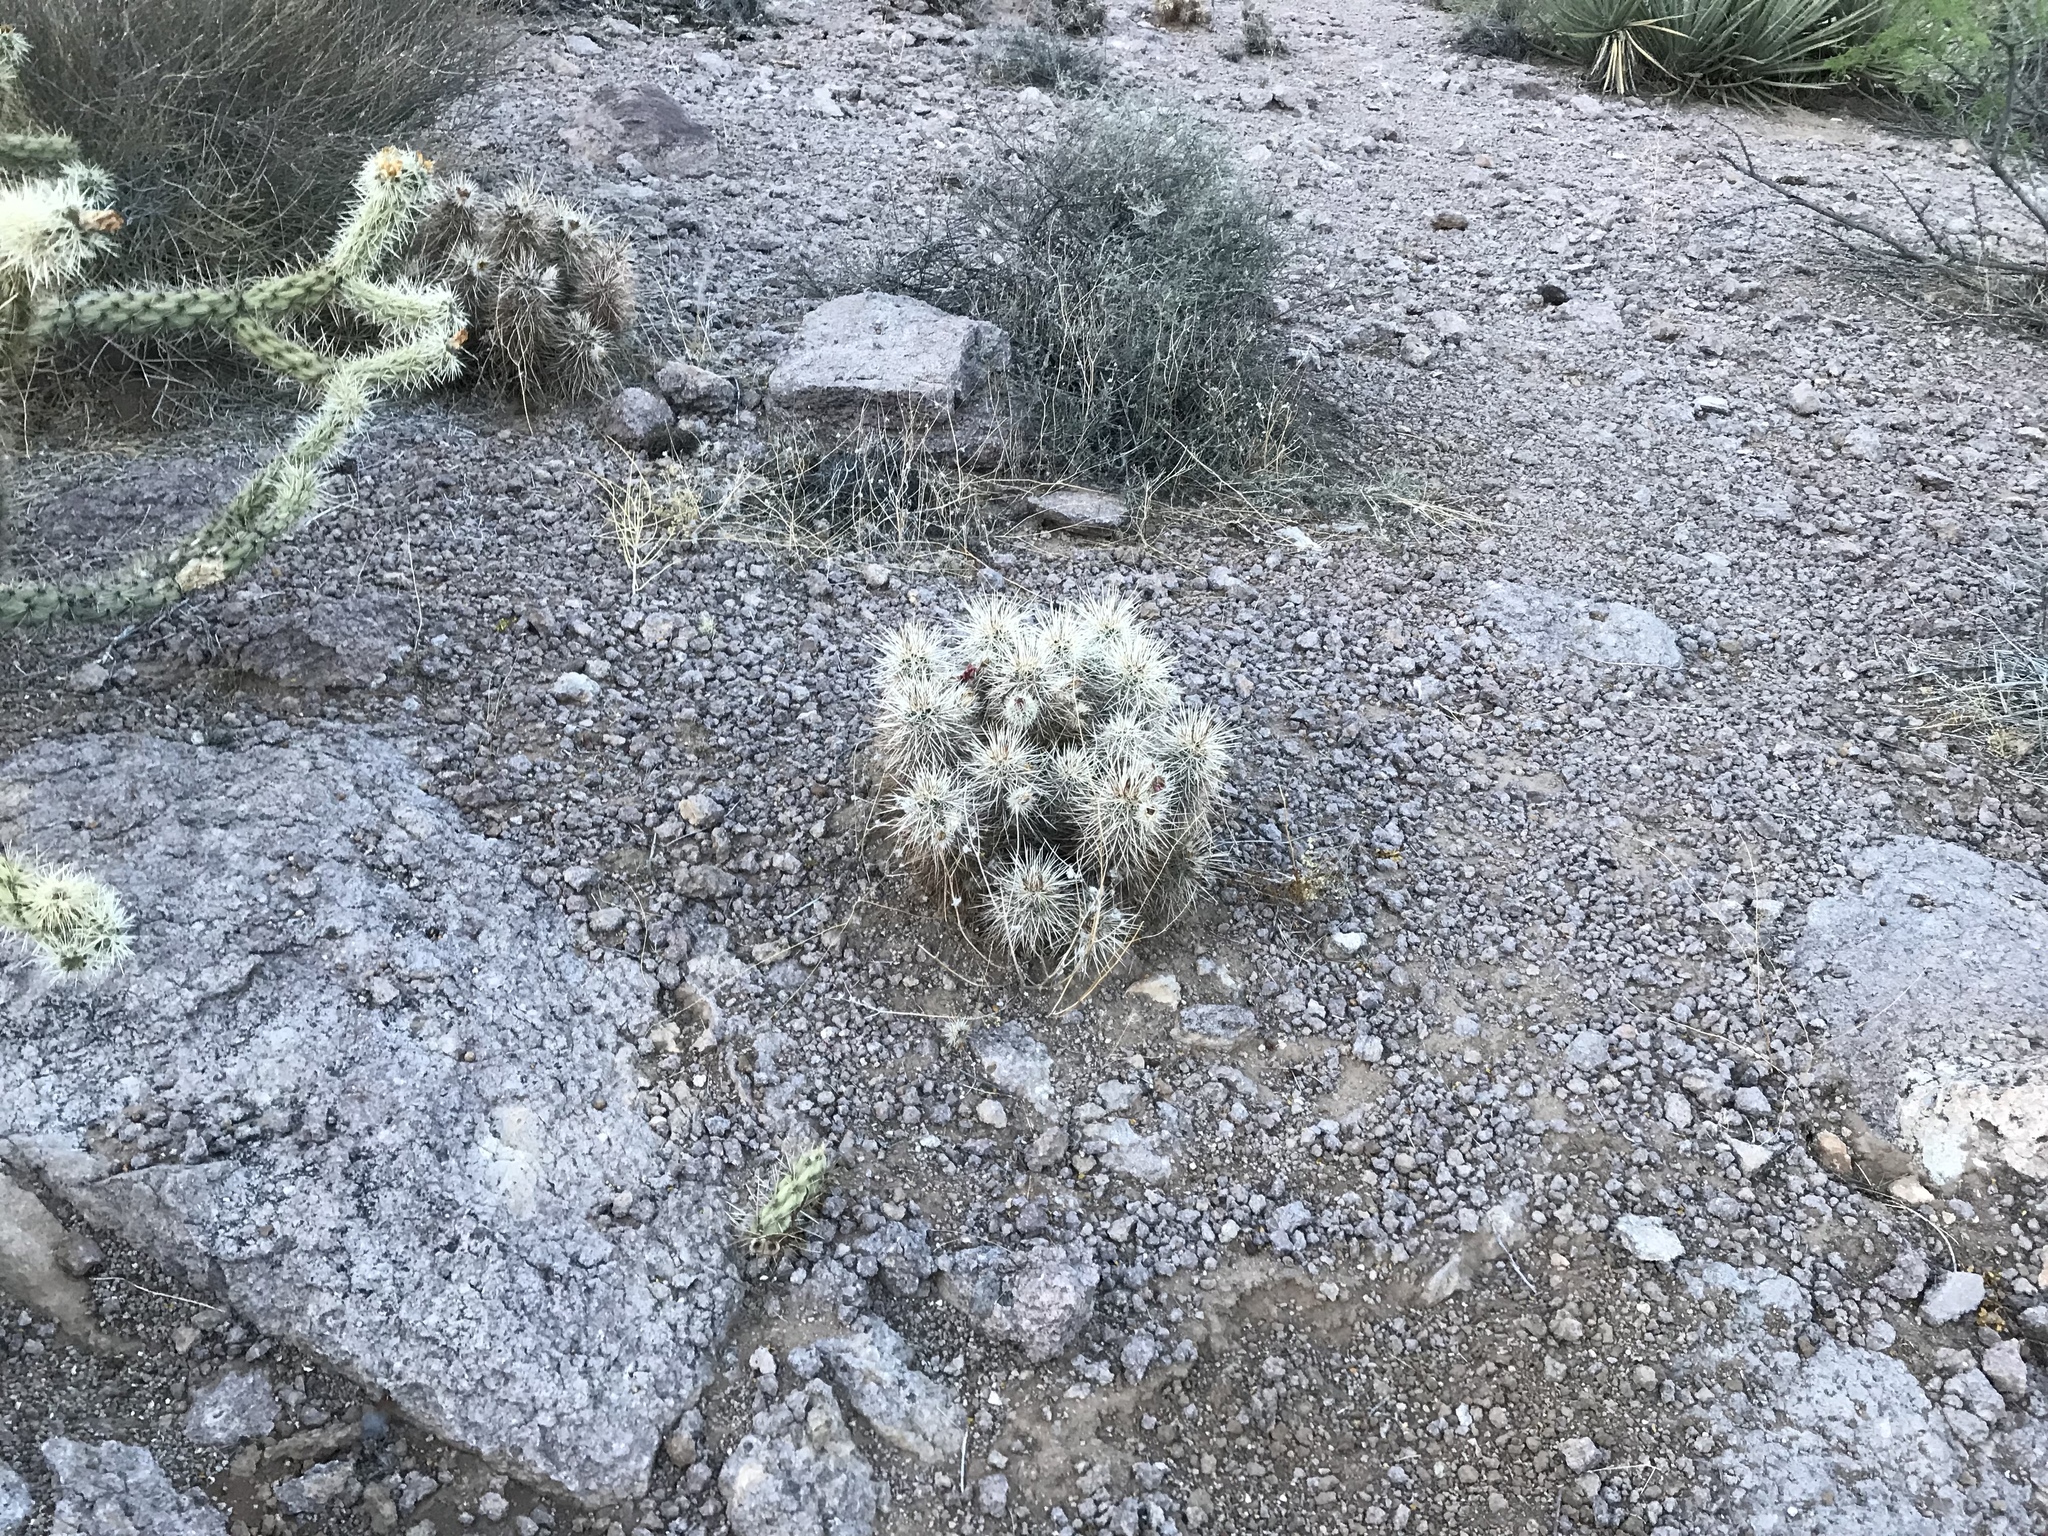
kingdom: Plantae
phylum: Tracheophyta
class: Magnoliopsida
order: Caryophyllales
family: Cactaceae
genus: Echinocereus
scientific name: Echinocereus engelmannii
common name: Engelmann's hedgehog cactus
